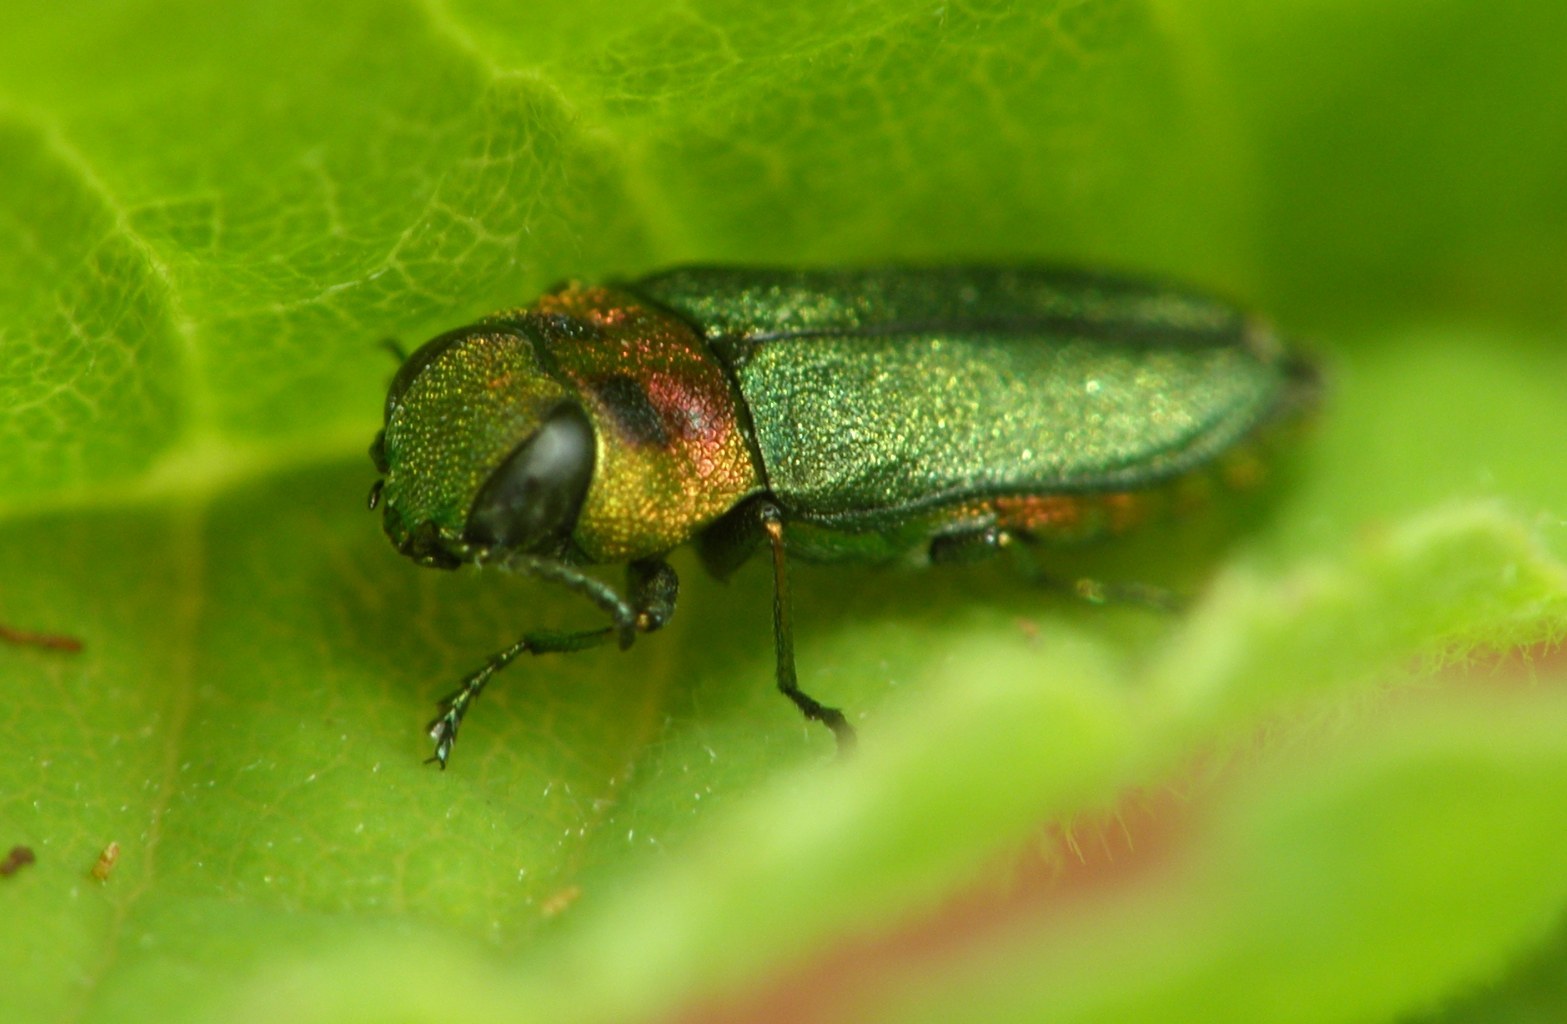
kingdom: Animalia
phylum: Arthropoda
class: Insecta
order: Coleoptera
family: Buprestidae
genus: Anthaxia
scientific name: Anthaxia nitidula
